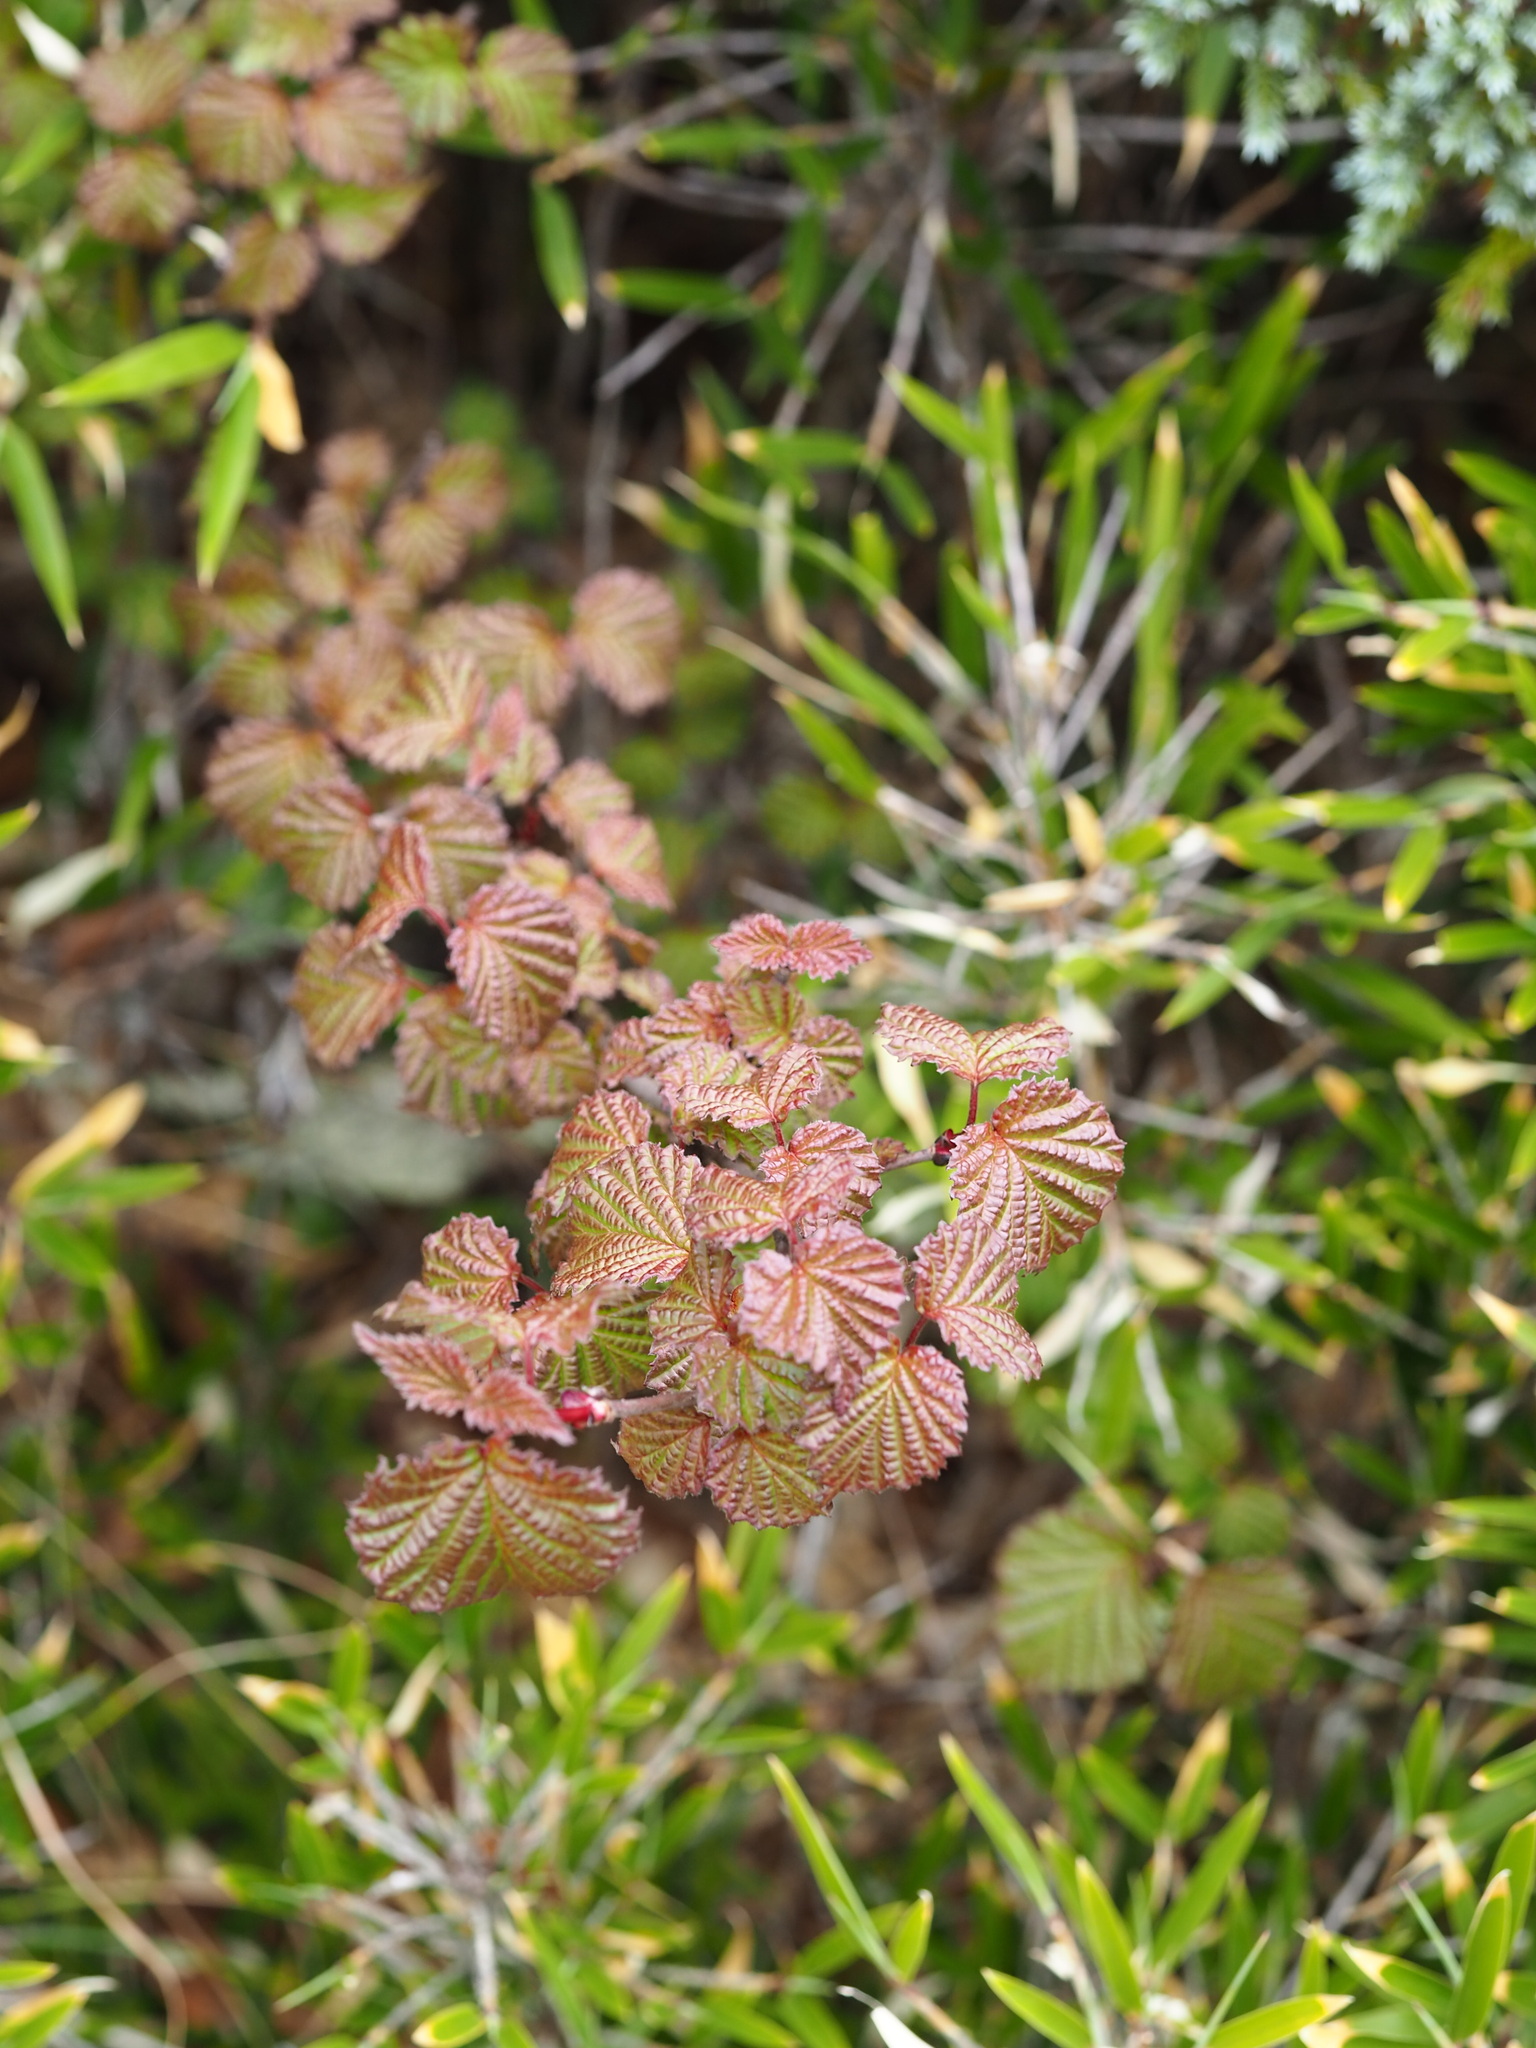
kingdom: Plantae
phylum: Tracheophyta
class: Magnoliopsida
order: Dipsacales
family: Viburnaceae
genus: Viburnum
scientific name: Viburnum betulifolium
